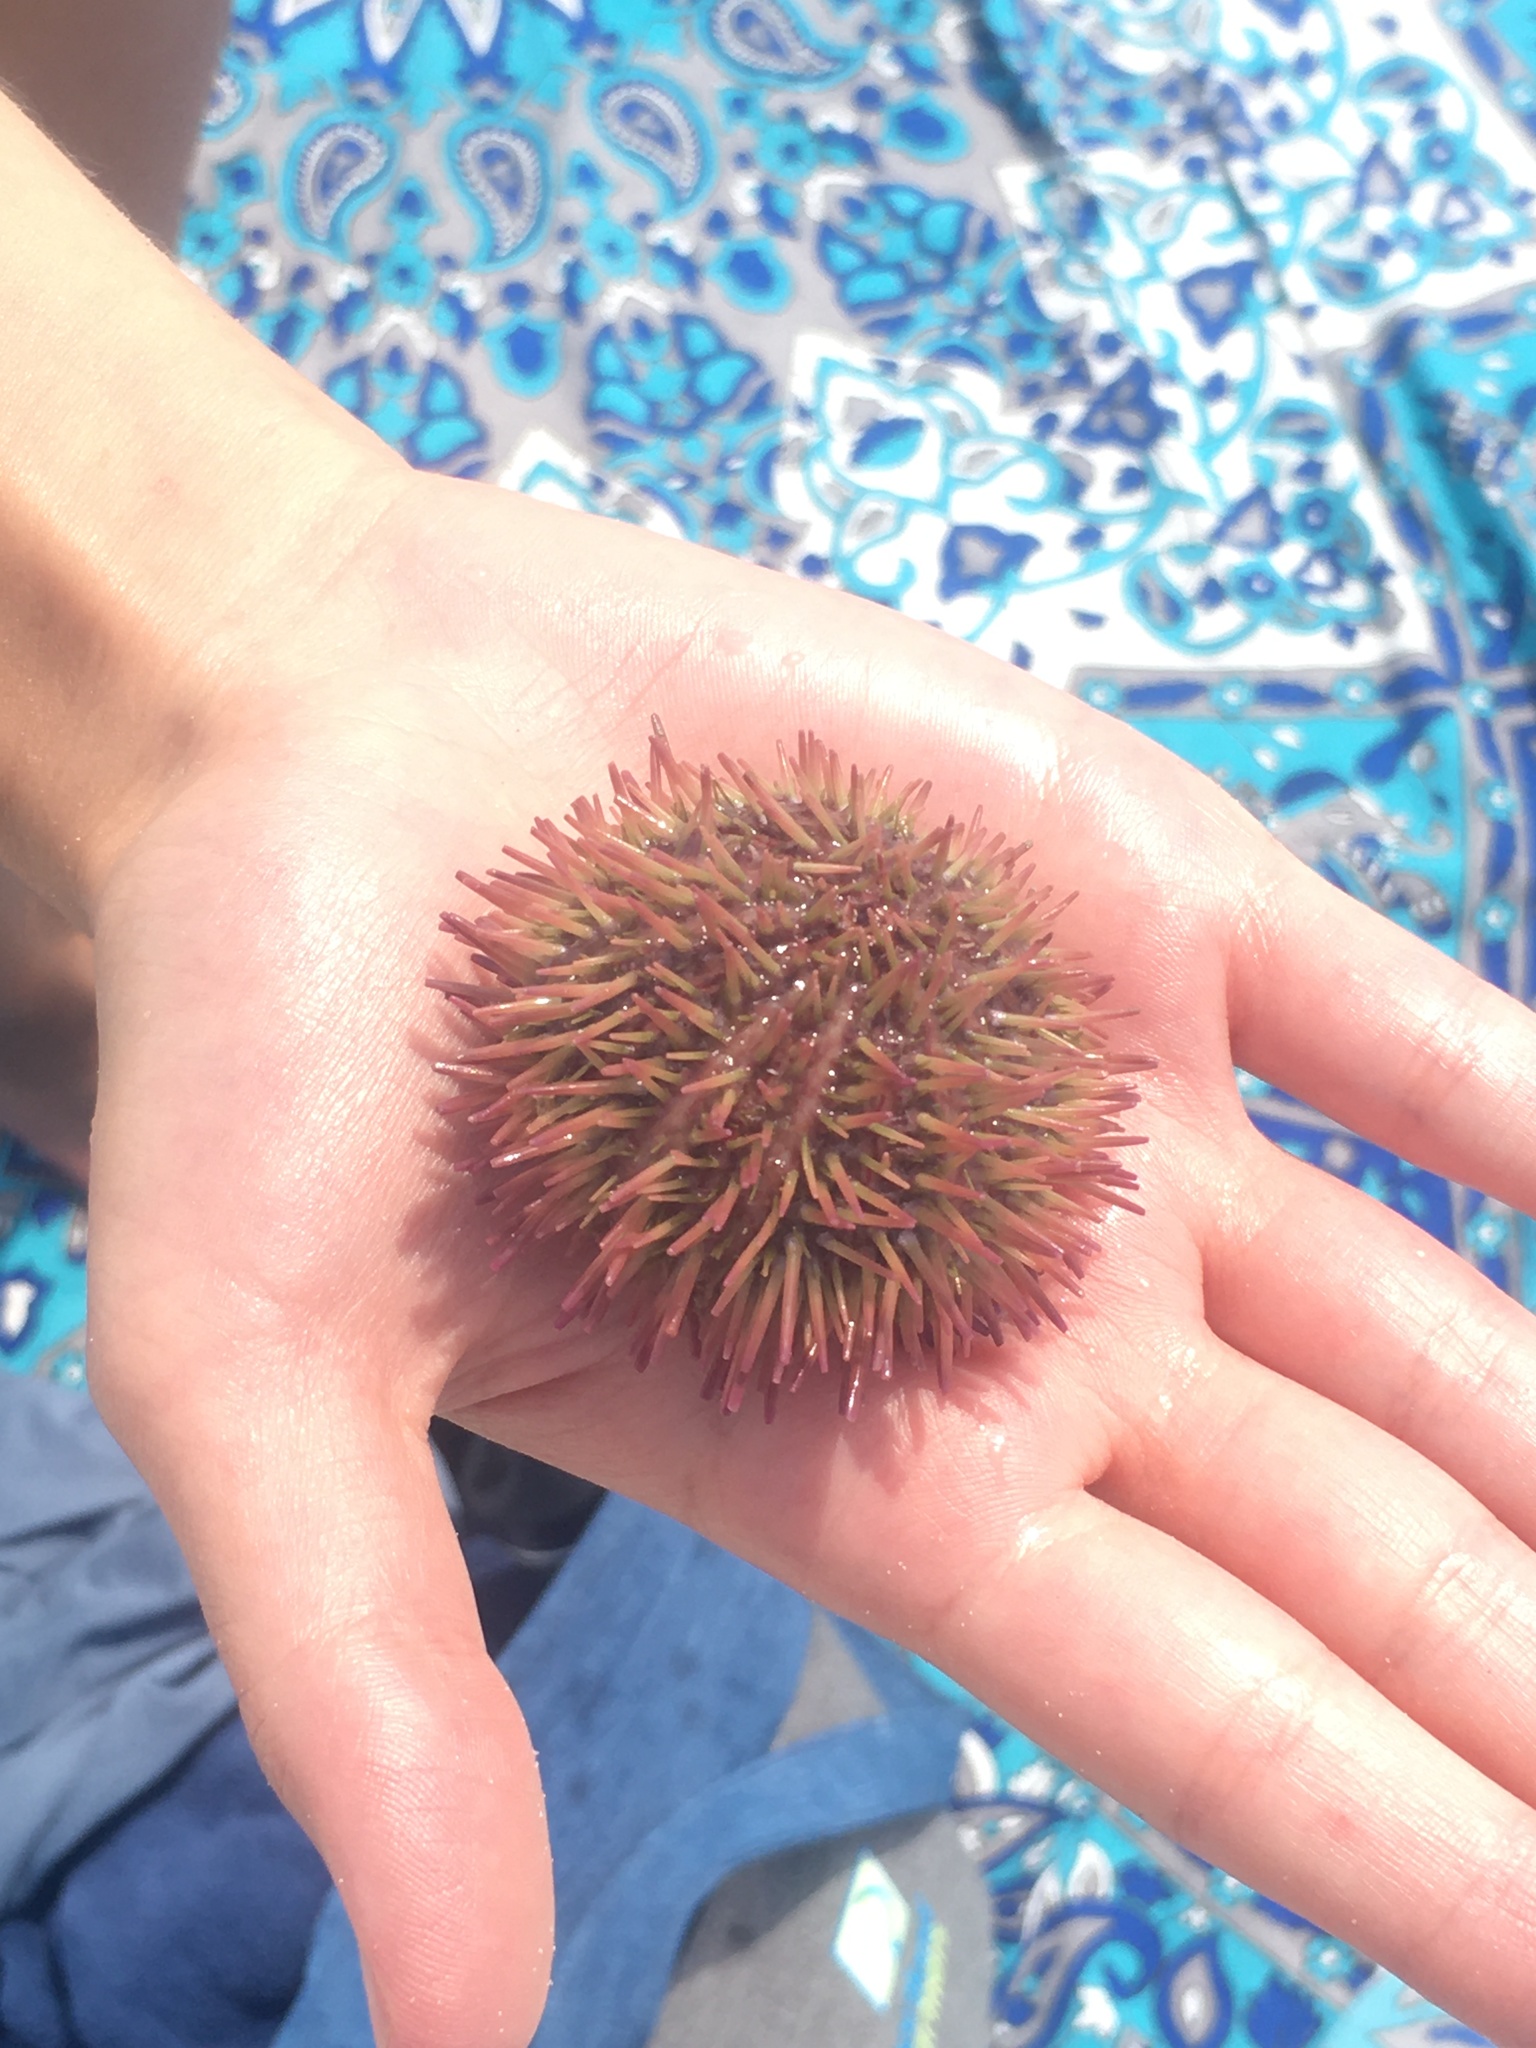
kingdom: Animalia
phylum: Echinodermata
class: Echinoidea
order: Camarodonta
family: Toxopneustidae
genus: Lytechinus
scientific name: Lytechinus variegatus
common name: Variegated urchin
